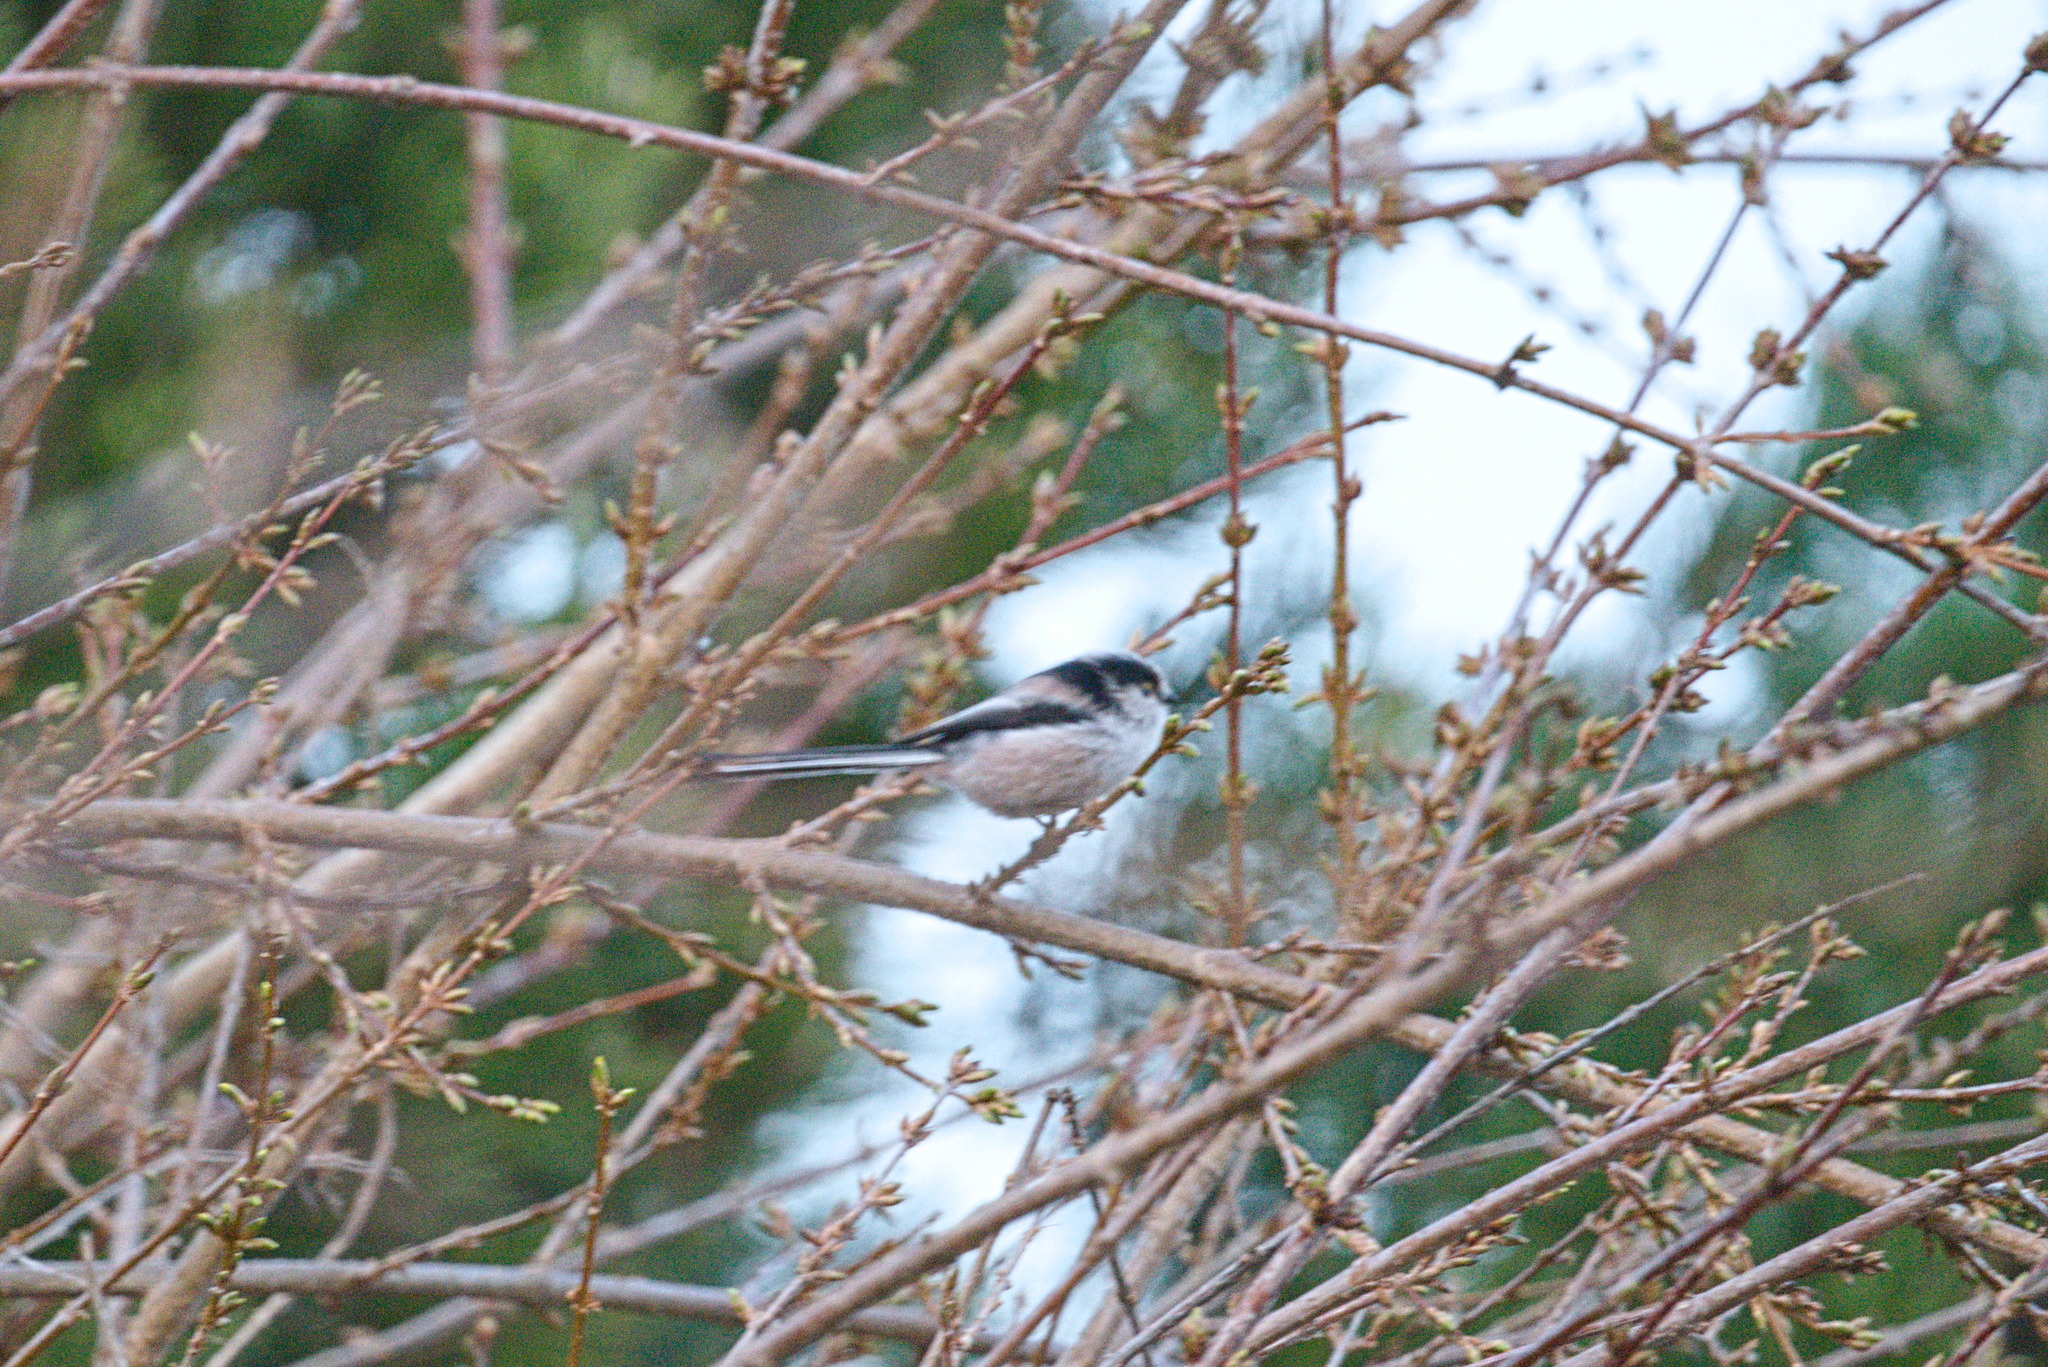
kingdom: Animalia
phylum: Chordata
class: Aves
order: Passeriformes
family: Aegithalidae
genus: Aegithalos
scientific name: Aegithalos caudatus
